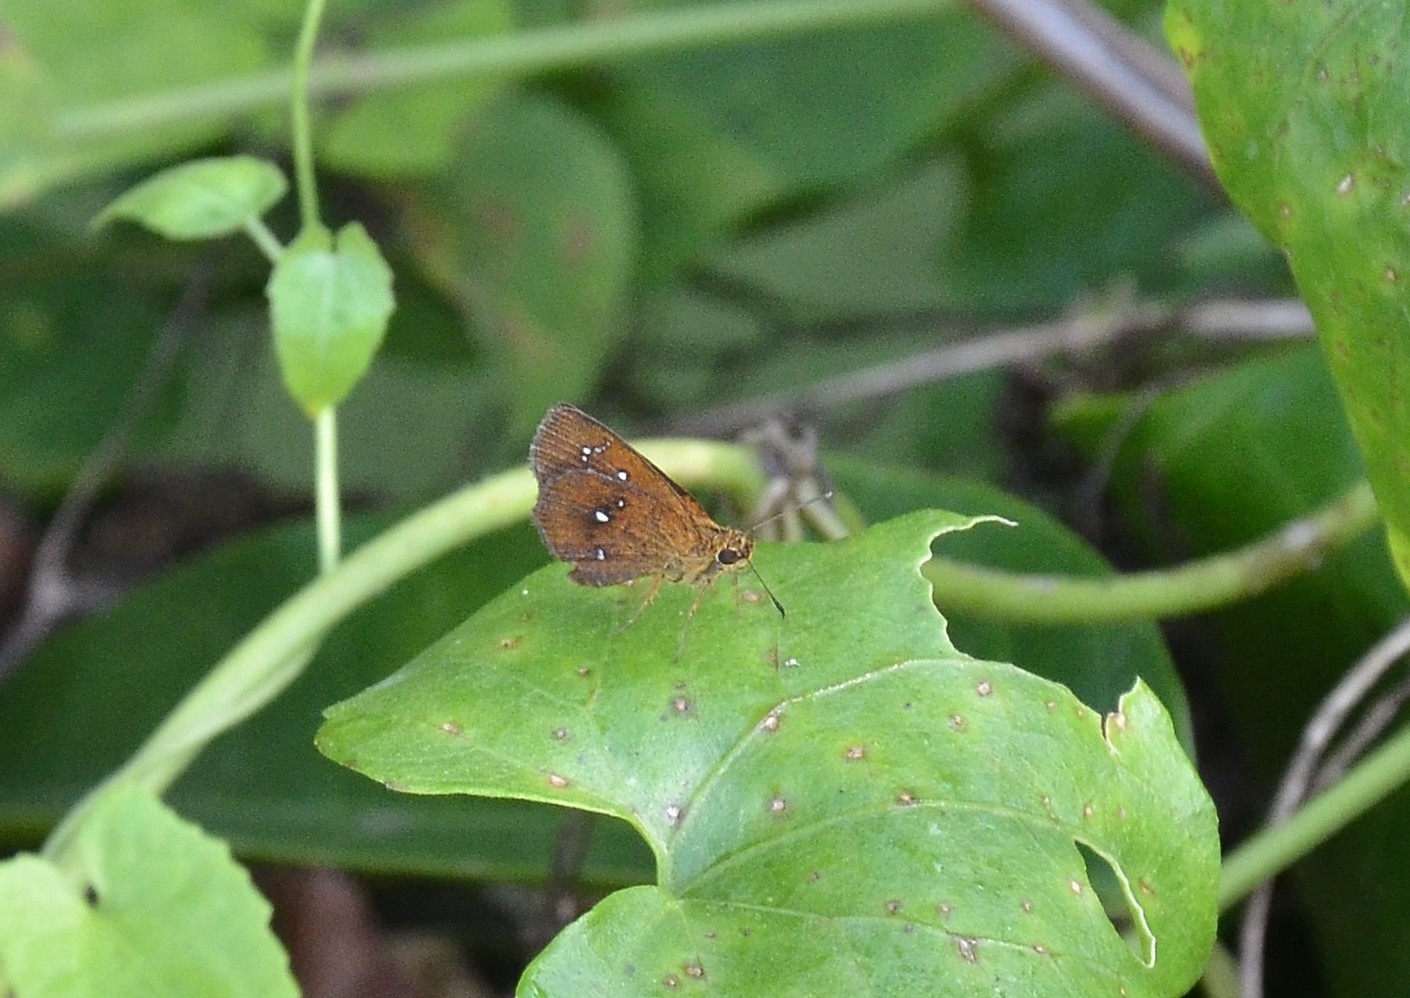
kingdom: Animalia
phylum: Arthropoda
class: Insecta
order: Lepidoptera
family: Hesperiidae
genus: Iambrix
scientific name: Iambrix salsala
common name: Chestnut bob
